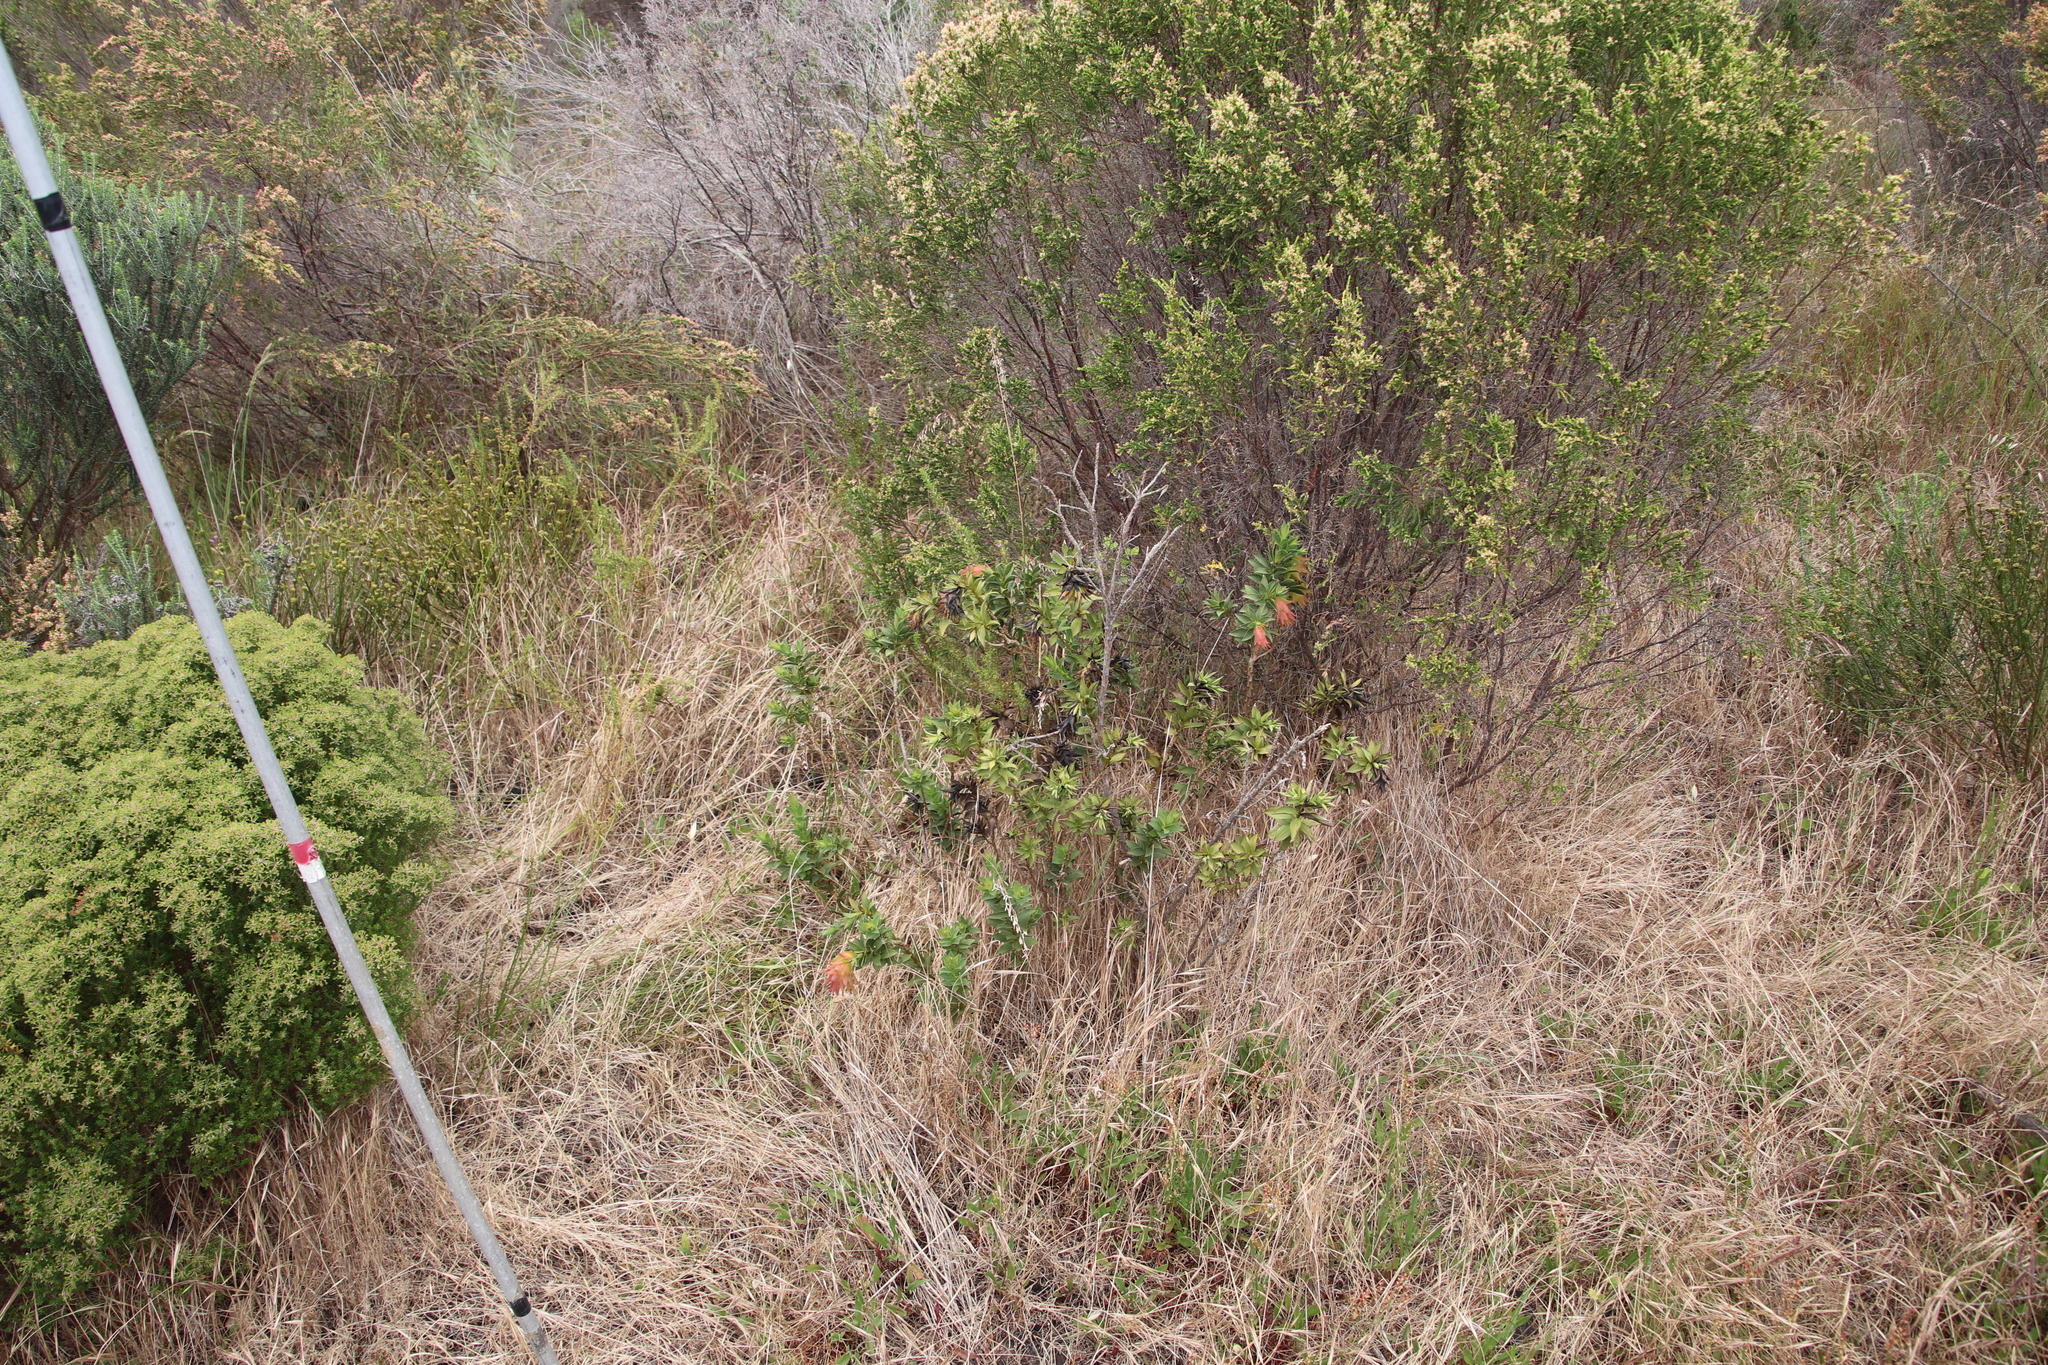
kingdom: Plantae
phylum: Tracheophyta
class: Magnoliopsida
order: Fabales
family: Fabaceae
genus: Liparia
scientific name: Liparia splendens
